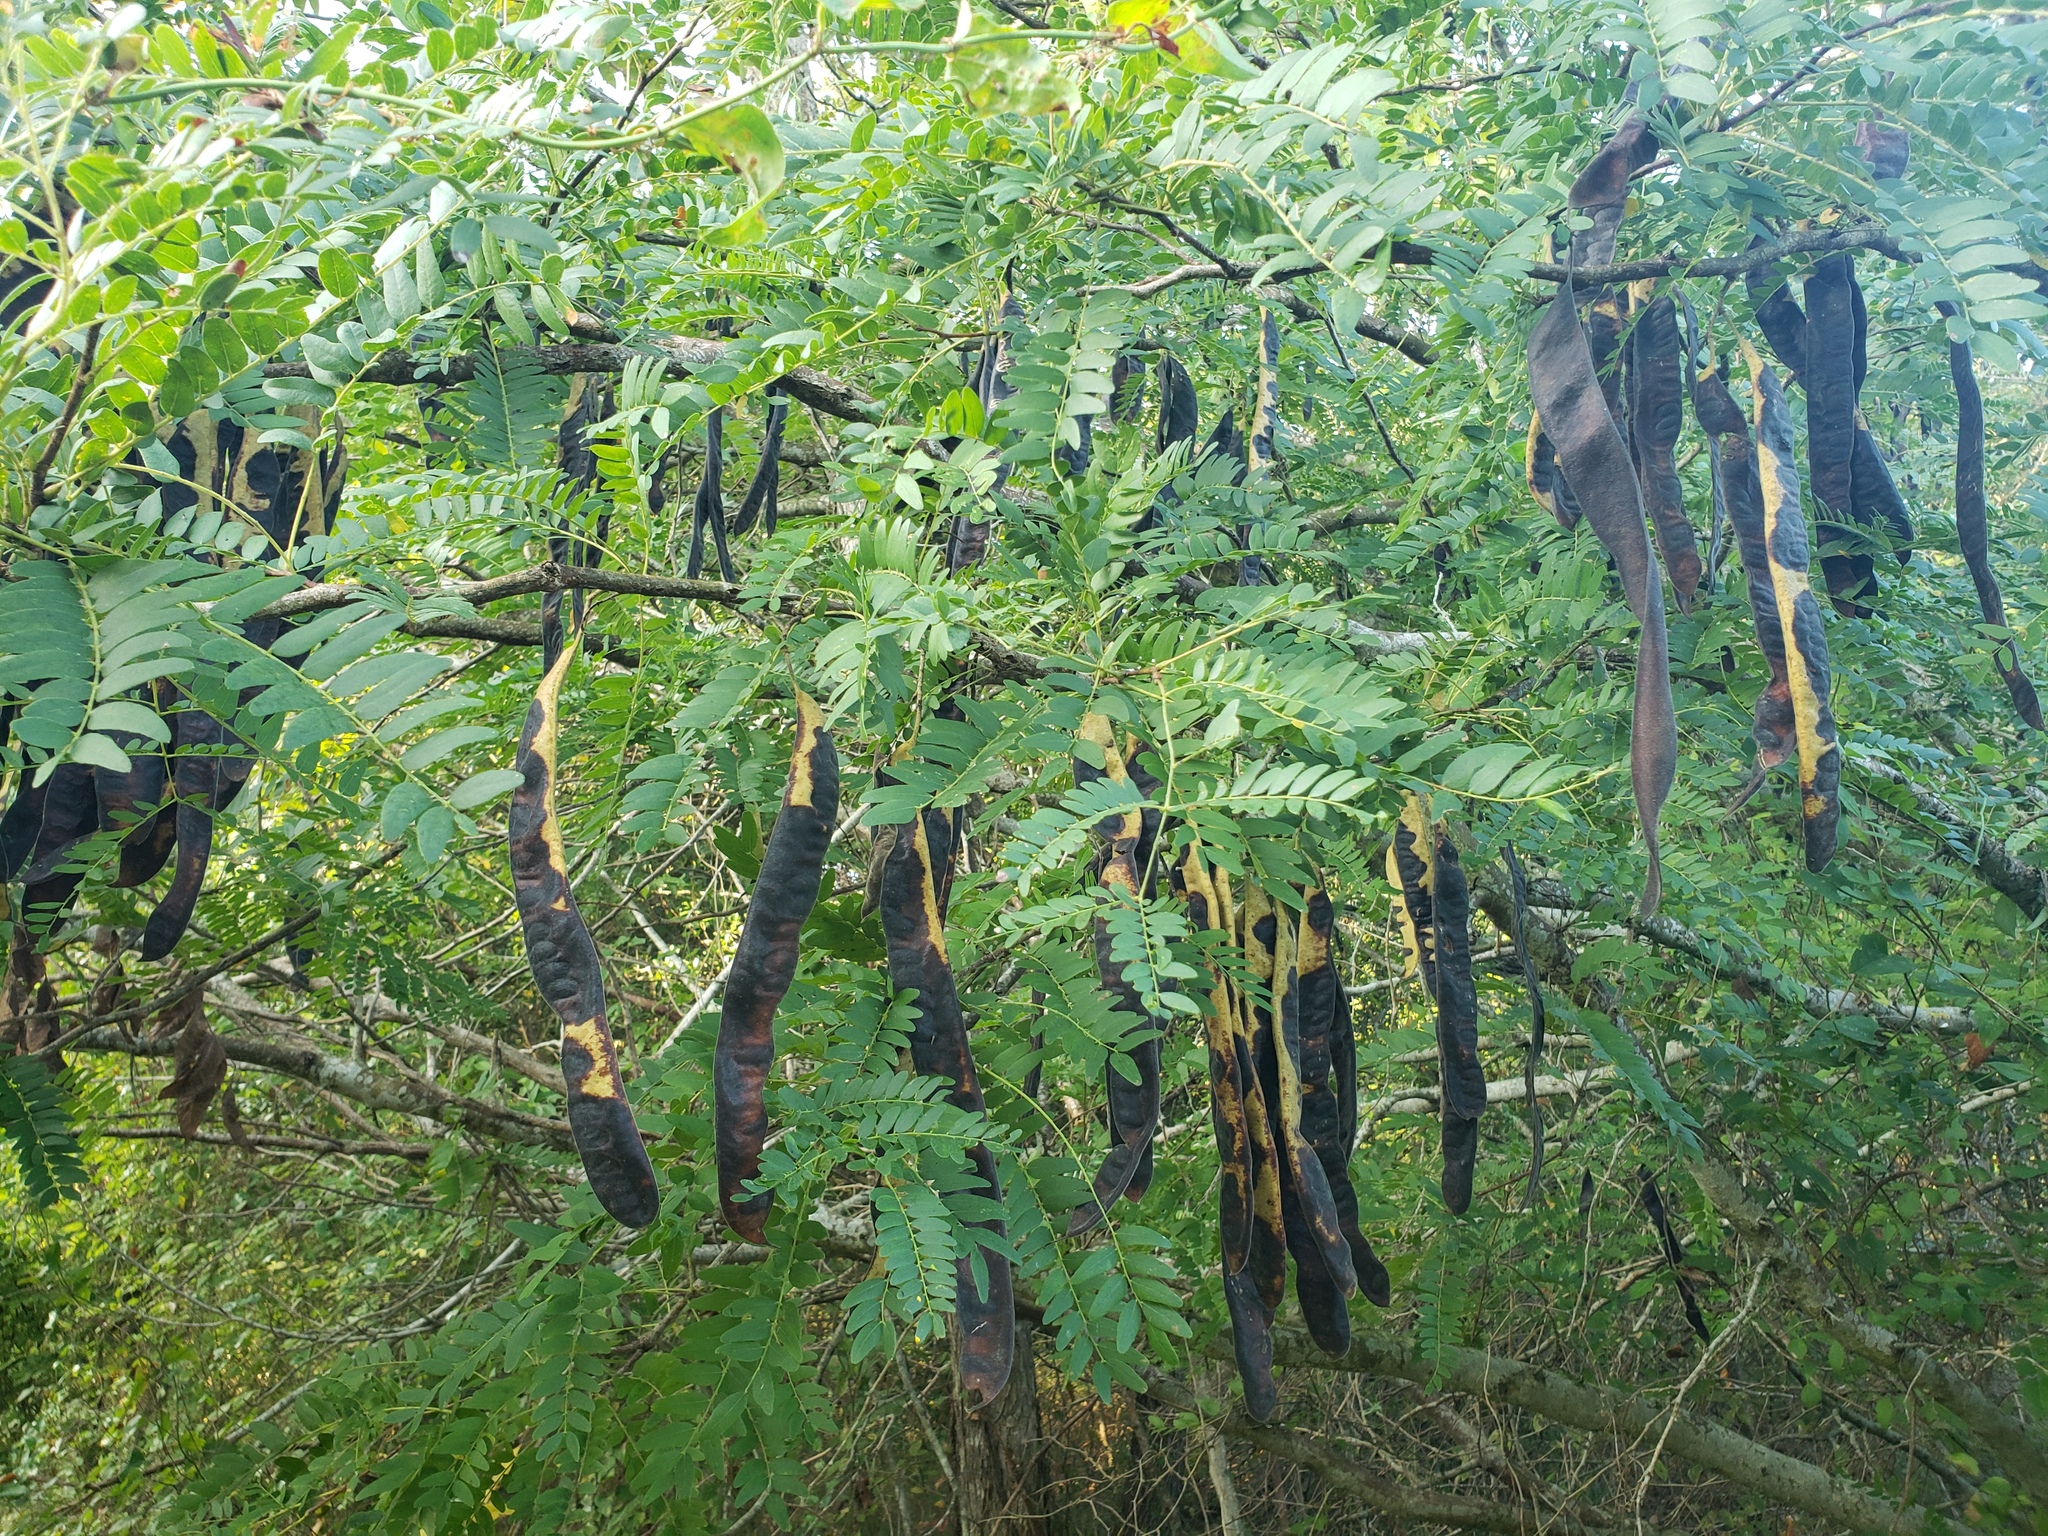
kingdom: Plantae
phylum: Tracheophyta
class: Magnoliopsida
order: Fabales
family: Fabaceae
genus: Gleditsia
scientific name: Gleditsia triacanthos
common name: Common honeylocust
